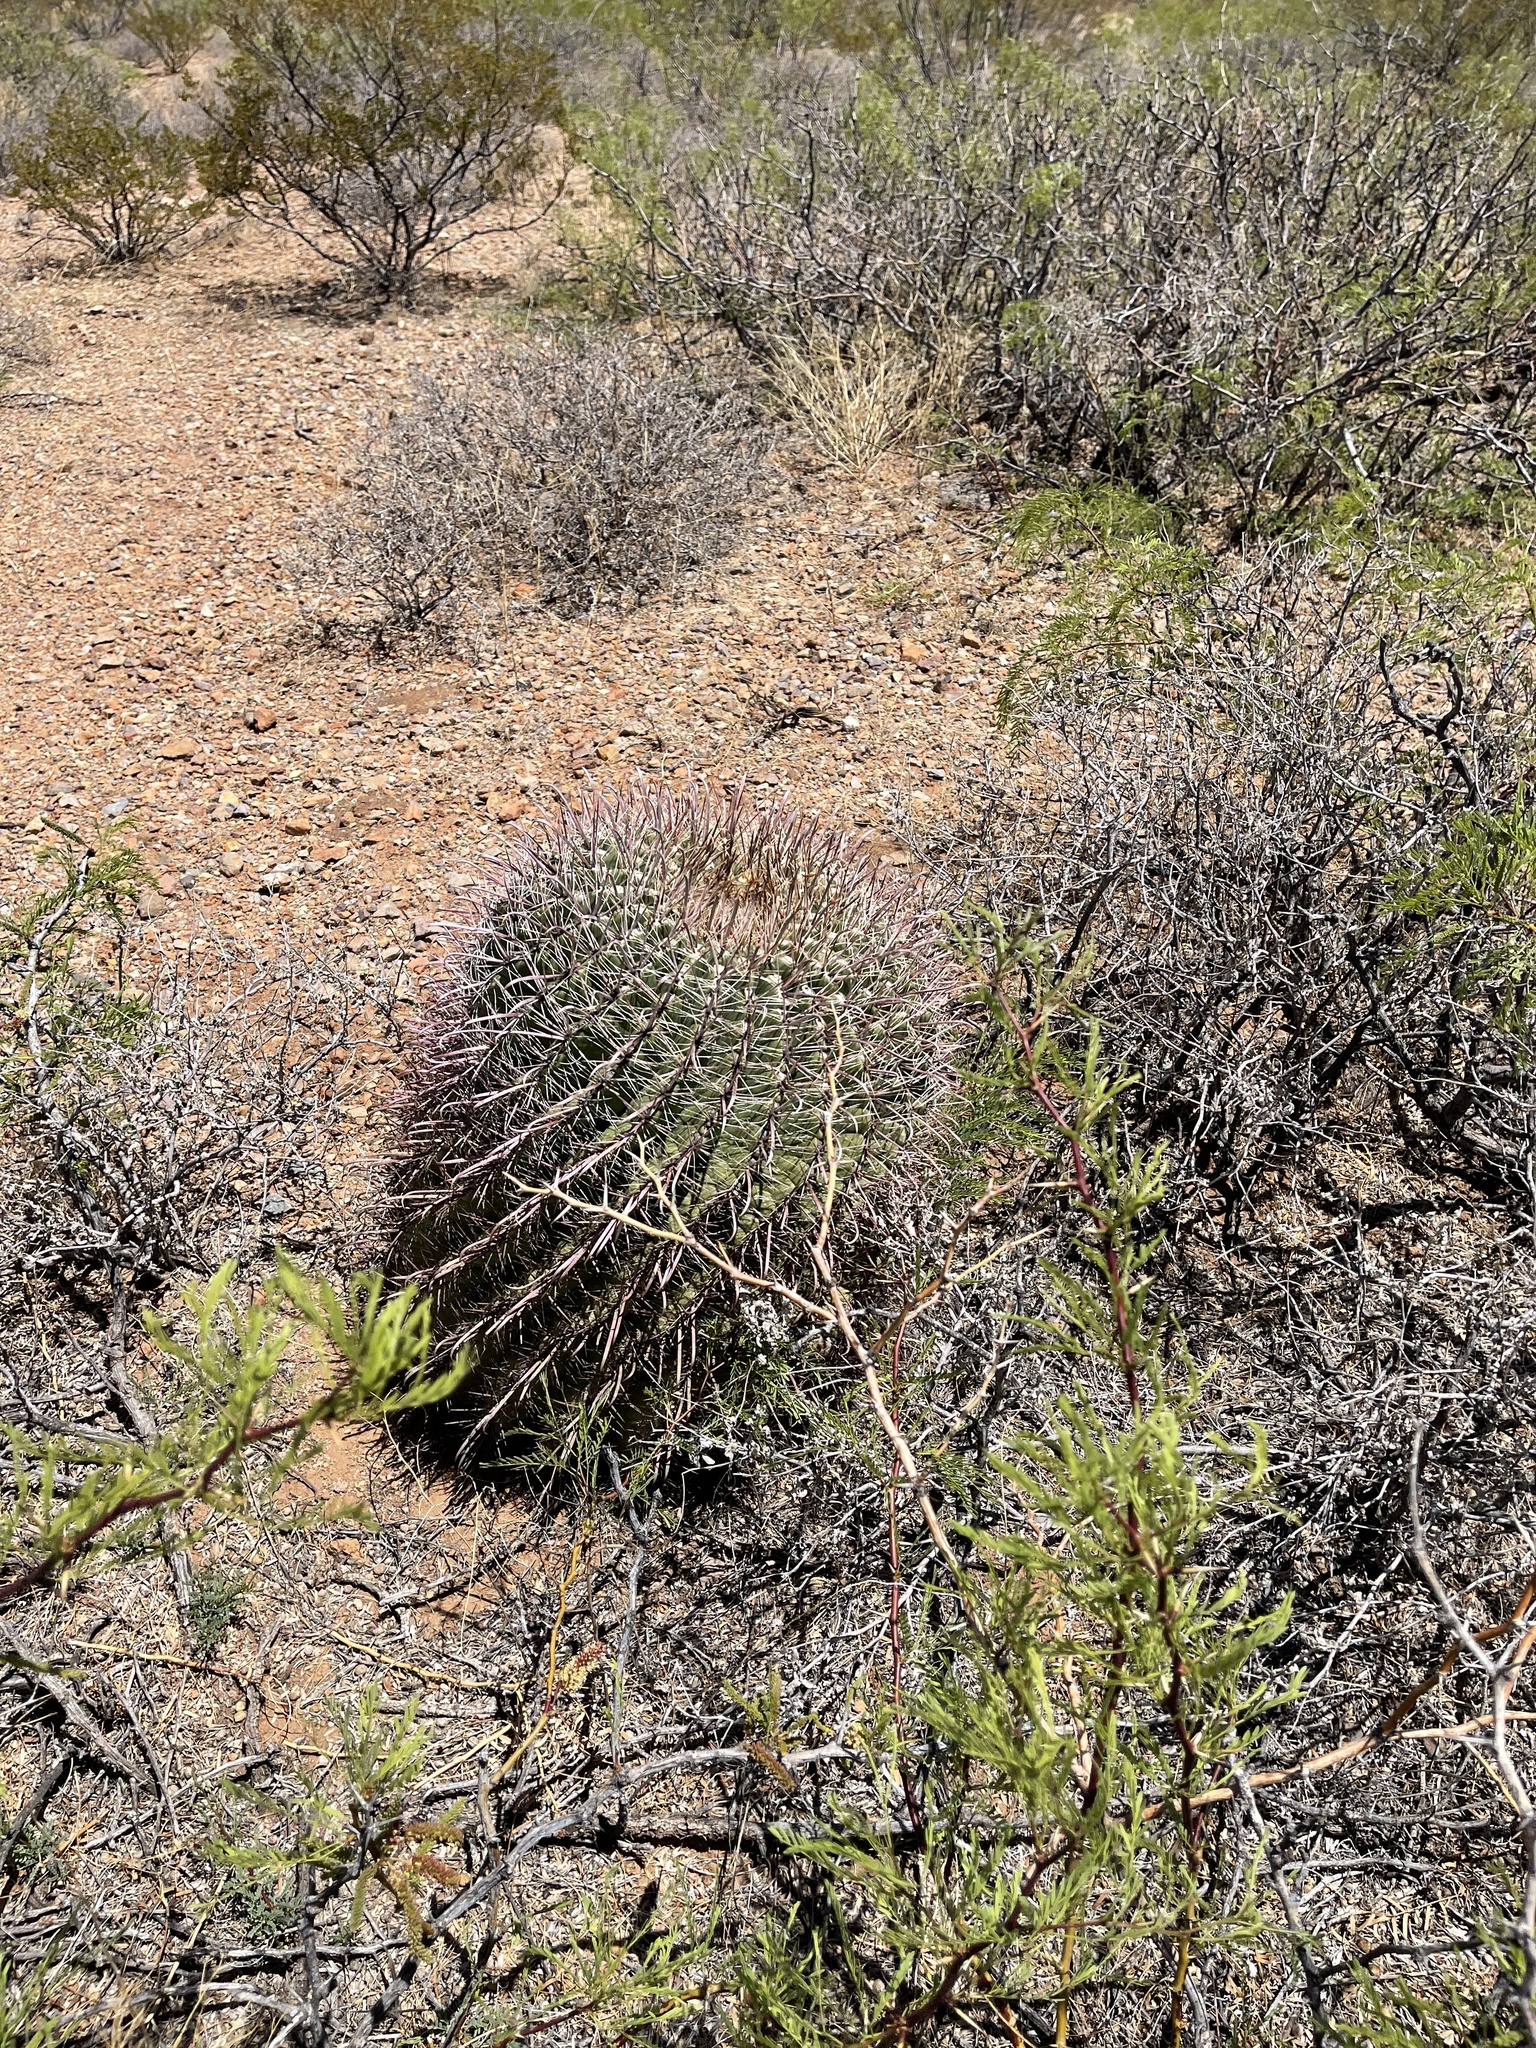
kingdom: Plantae
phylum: Tracheophyta
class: Magnoliopsida
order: Caryophyllales
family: Cactaceae
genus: Ferocactus
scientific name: Ferocactus wislizeni
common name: Candy barrel cactus
